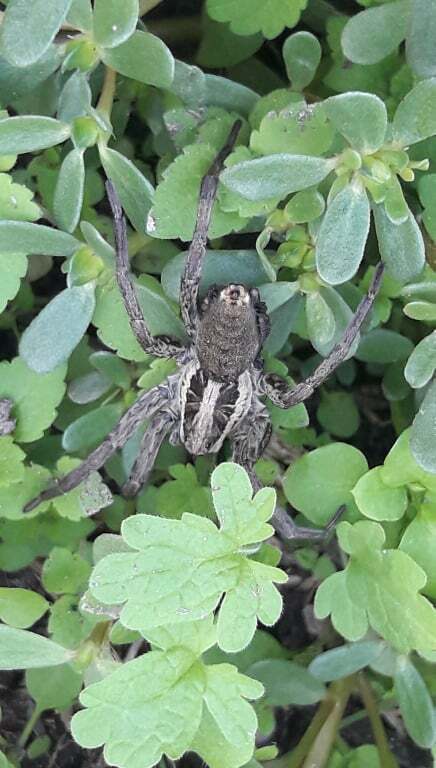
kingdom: Animalia
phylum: Arthropoda
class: Arachnida
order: Araneae
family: Lycosidae
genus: Hogna
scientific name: Hogna radiata
